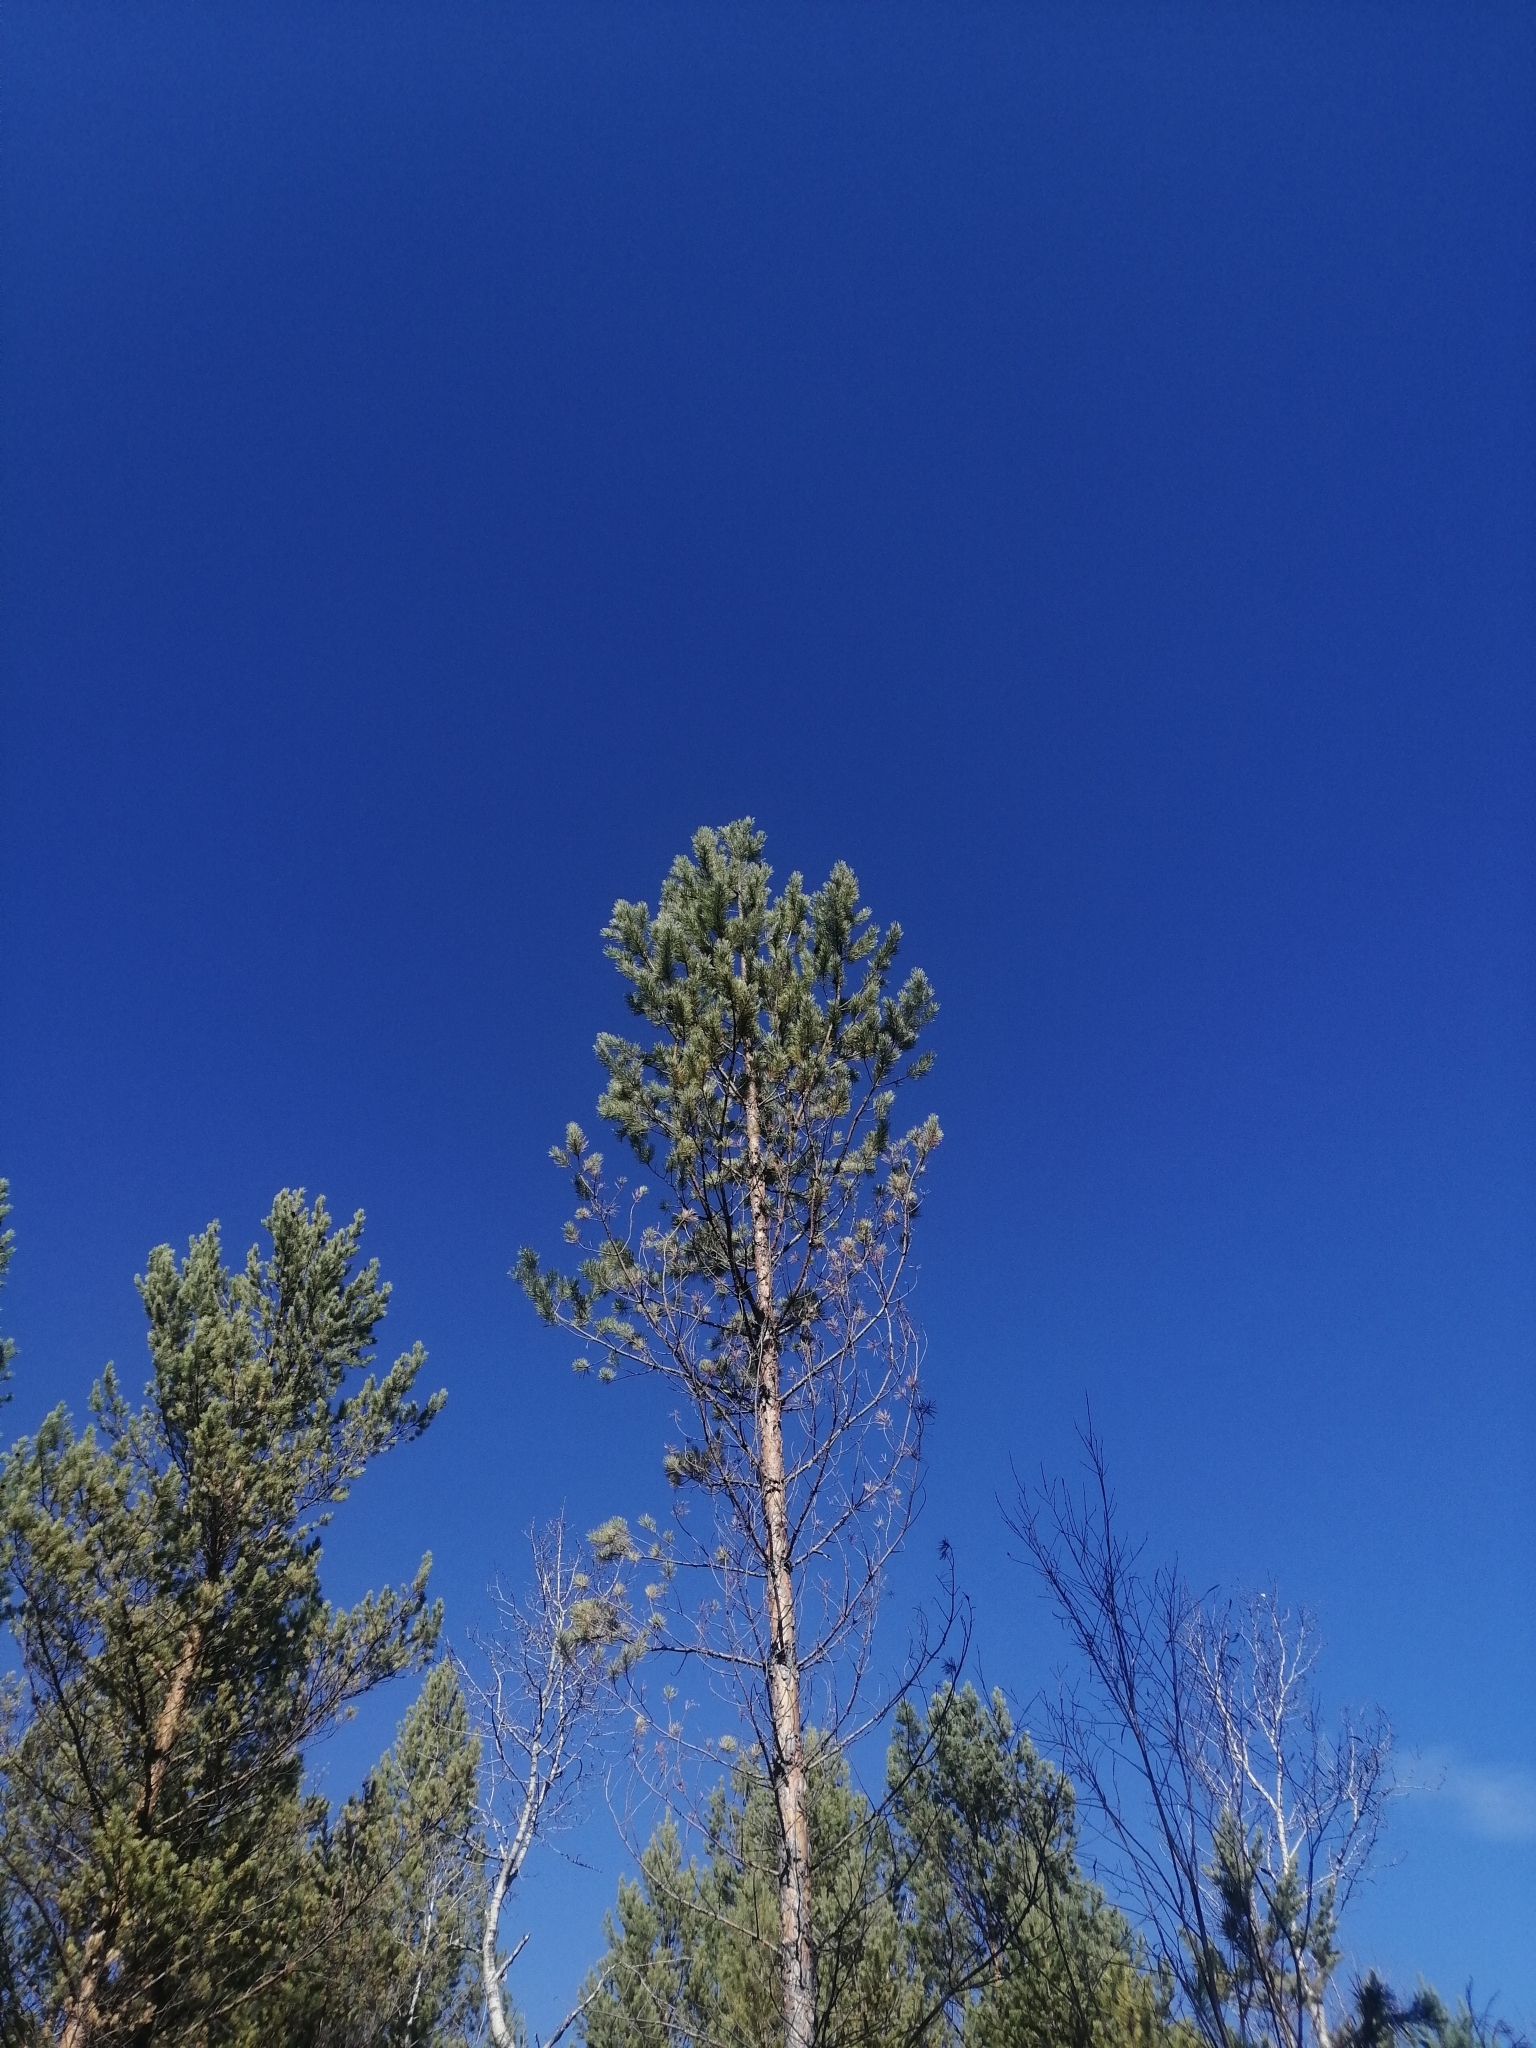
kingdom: Plantae
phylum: Tracheophyta
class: Pinopsida
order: Pinales
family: Pinaceae
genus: Pinus
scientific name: Pinus sylvestris
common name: Scots pine
